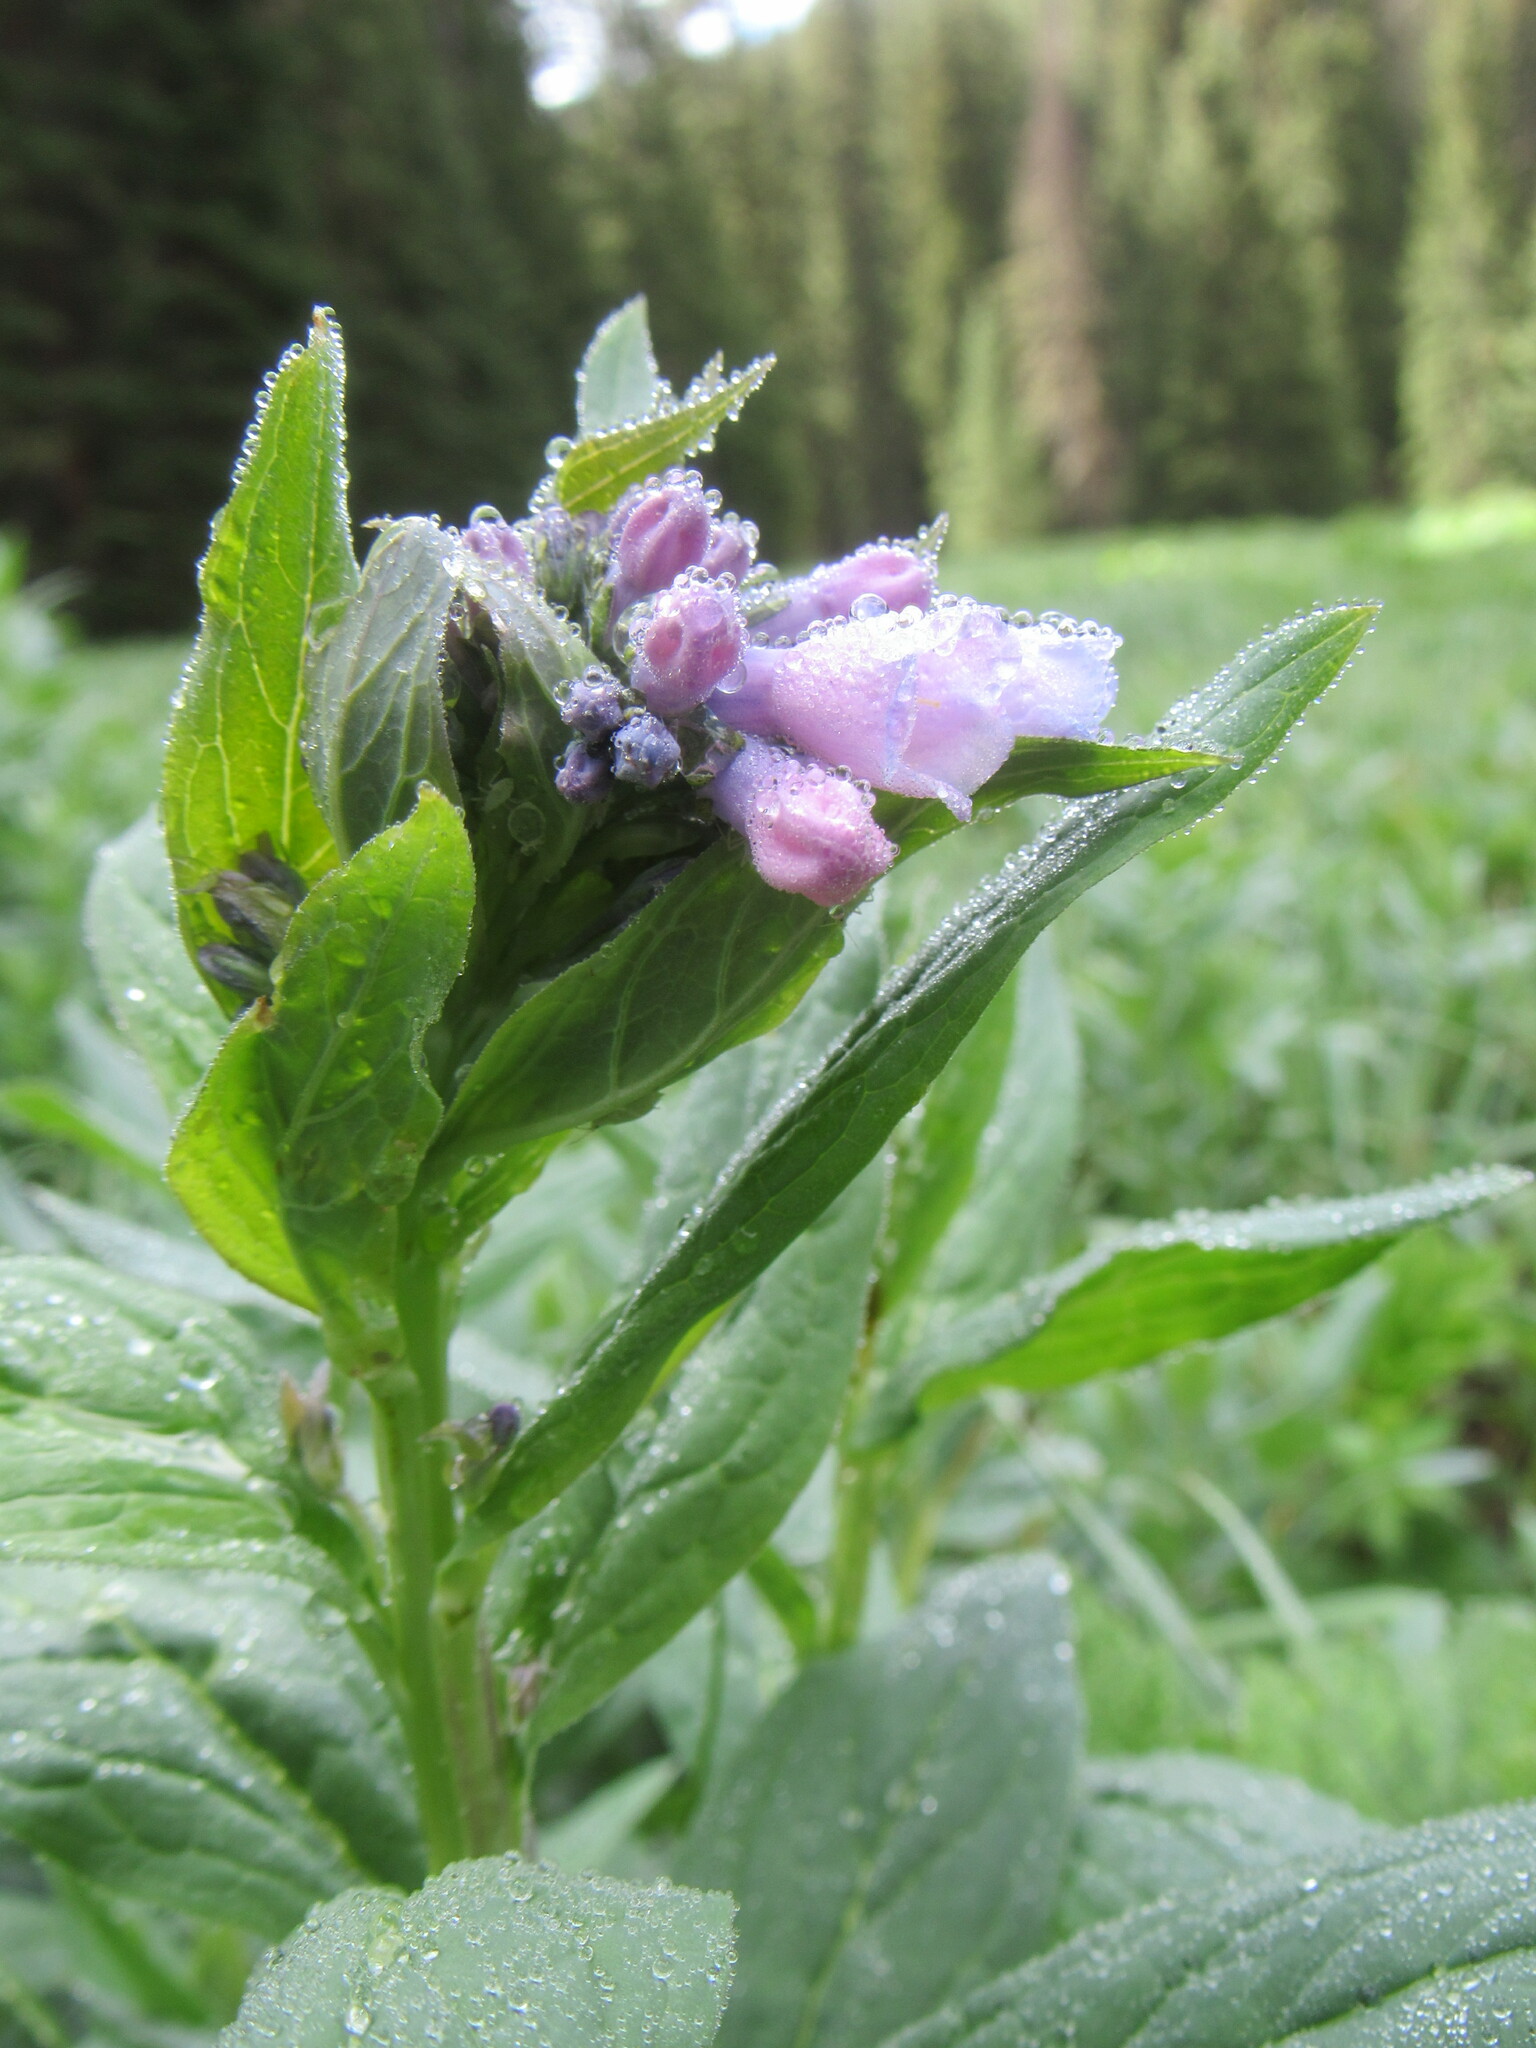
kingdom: Plantae
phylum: Tracheophyta
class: Magnoliopsida
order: Boraginales
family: Boraginaceae
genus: Mertensia
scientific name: Mertensia ciliata
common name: Tall chiming-bells
